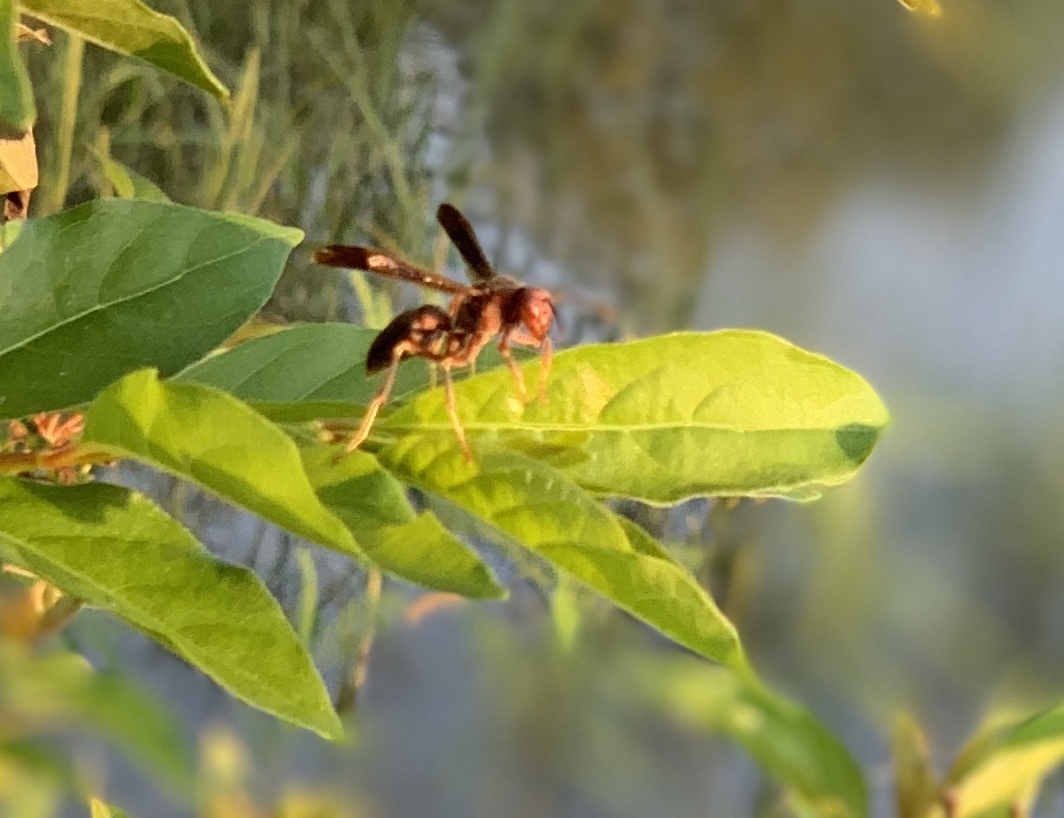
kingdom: Animalia
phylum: Arthropoda
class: Insecta
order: Hymenoptera
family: Eumenidae
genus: Polistes
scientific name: Polistes metricus
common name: Metric paper wasp
